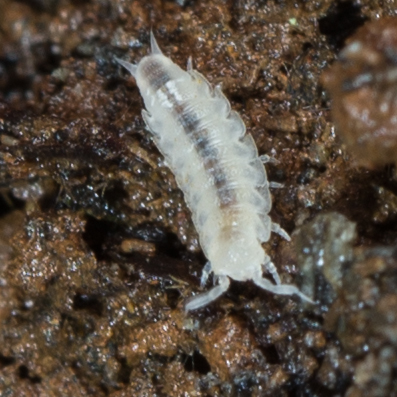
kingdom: Animalia
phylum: Arthropoda
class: Malacostraca
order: Isopoda
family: Trichoniscidae
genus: Brackenridgia
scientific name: Brackenridgia heroldi
